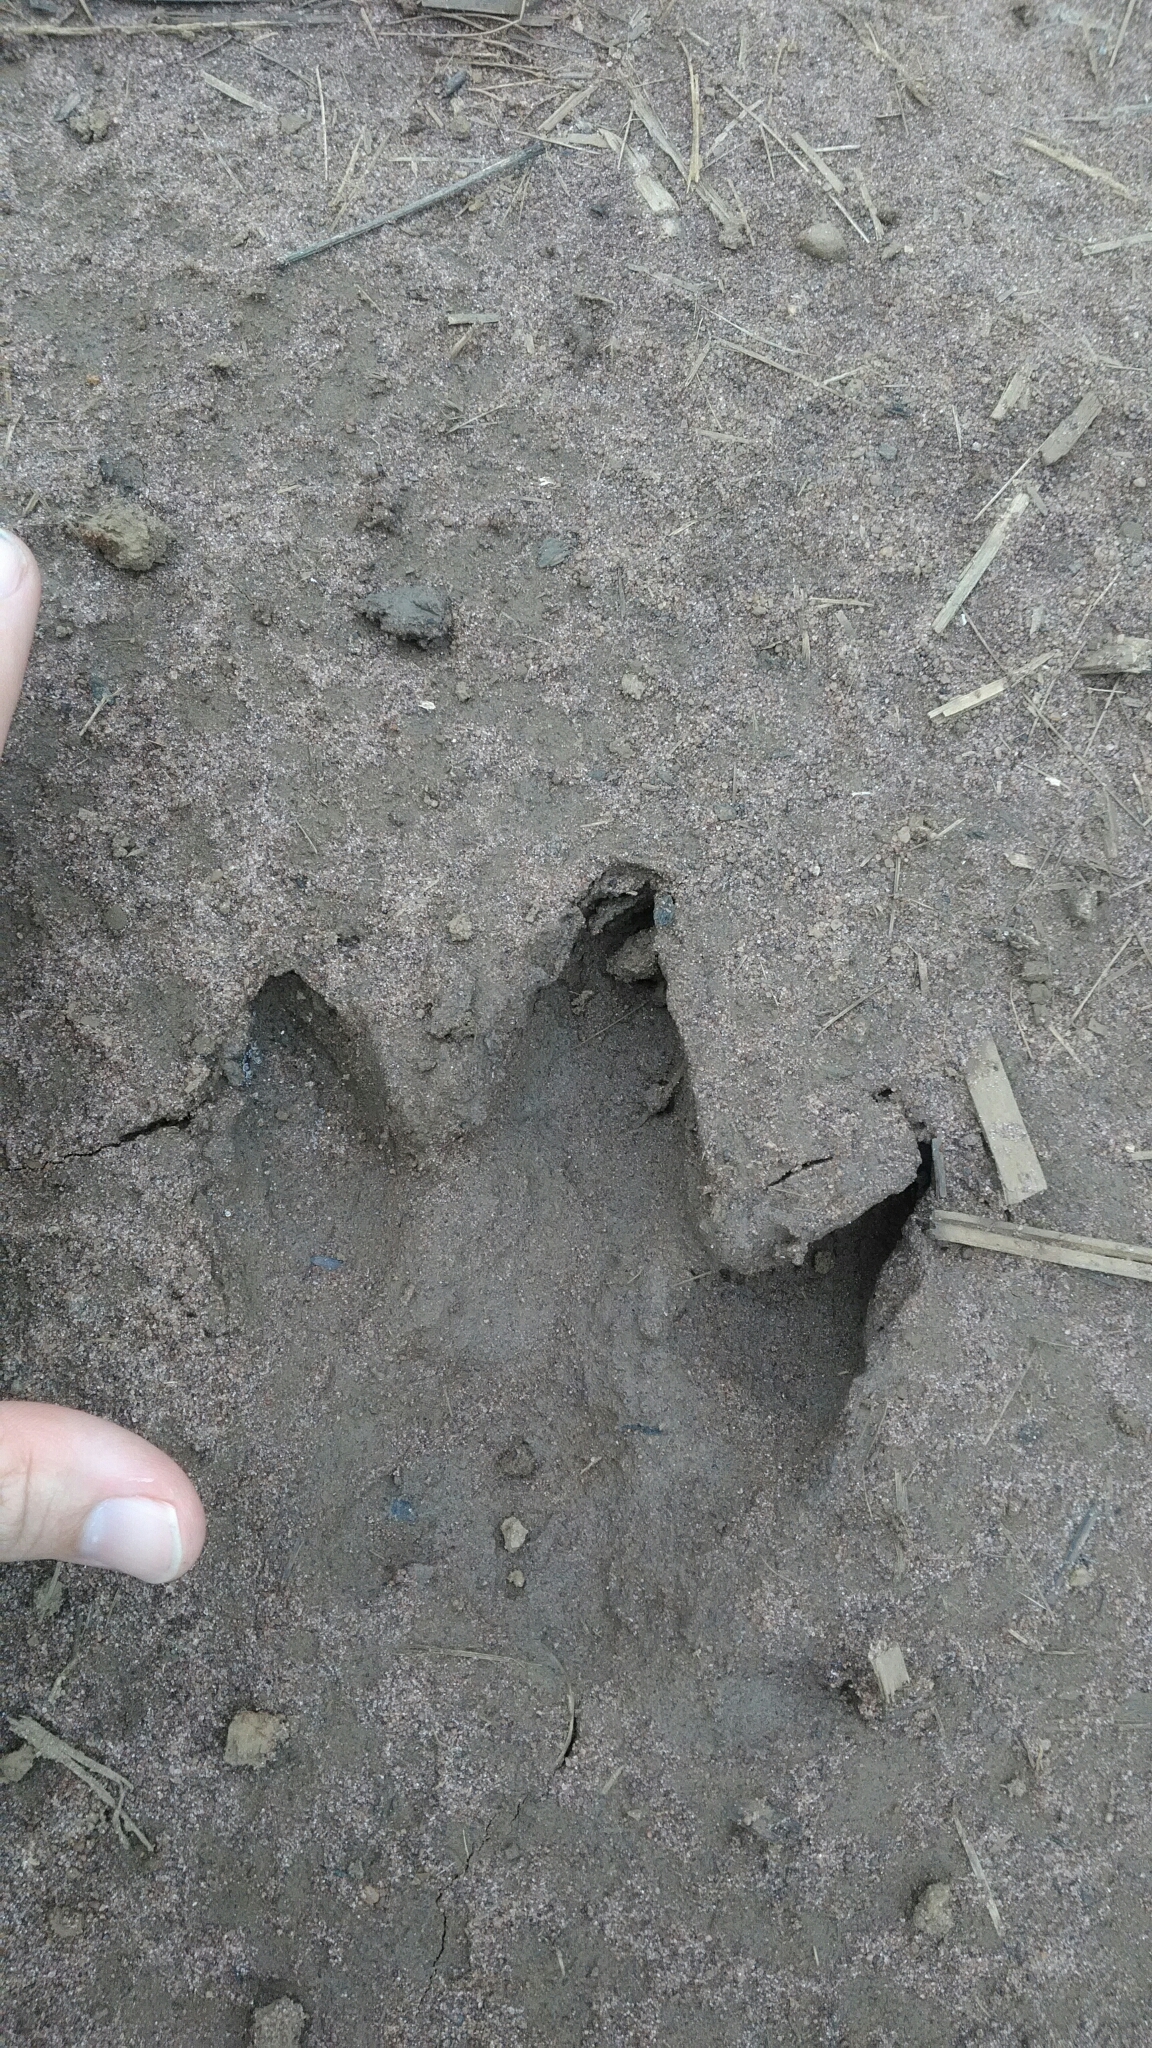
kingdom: Animalia
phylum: Chordata
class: Mammalia
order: Rodentia
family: Caviidae
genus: Hydrochoerus
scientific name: Hydrochoerus hydrochaeris
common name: Capybara
